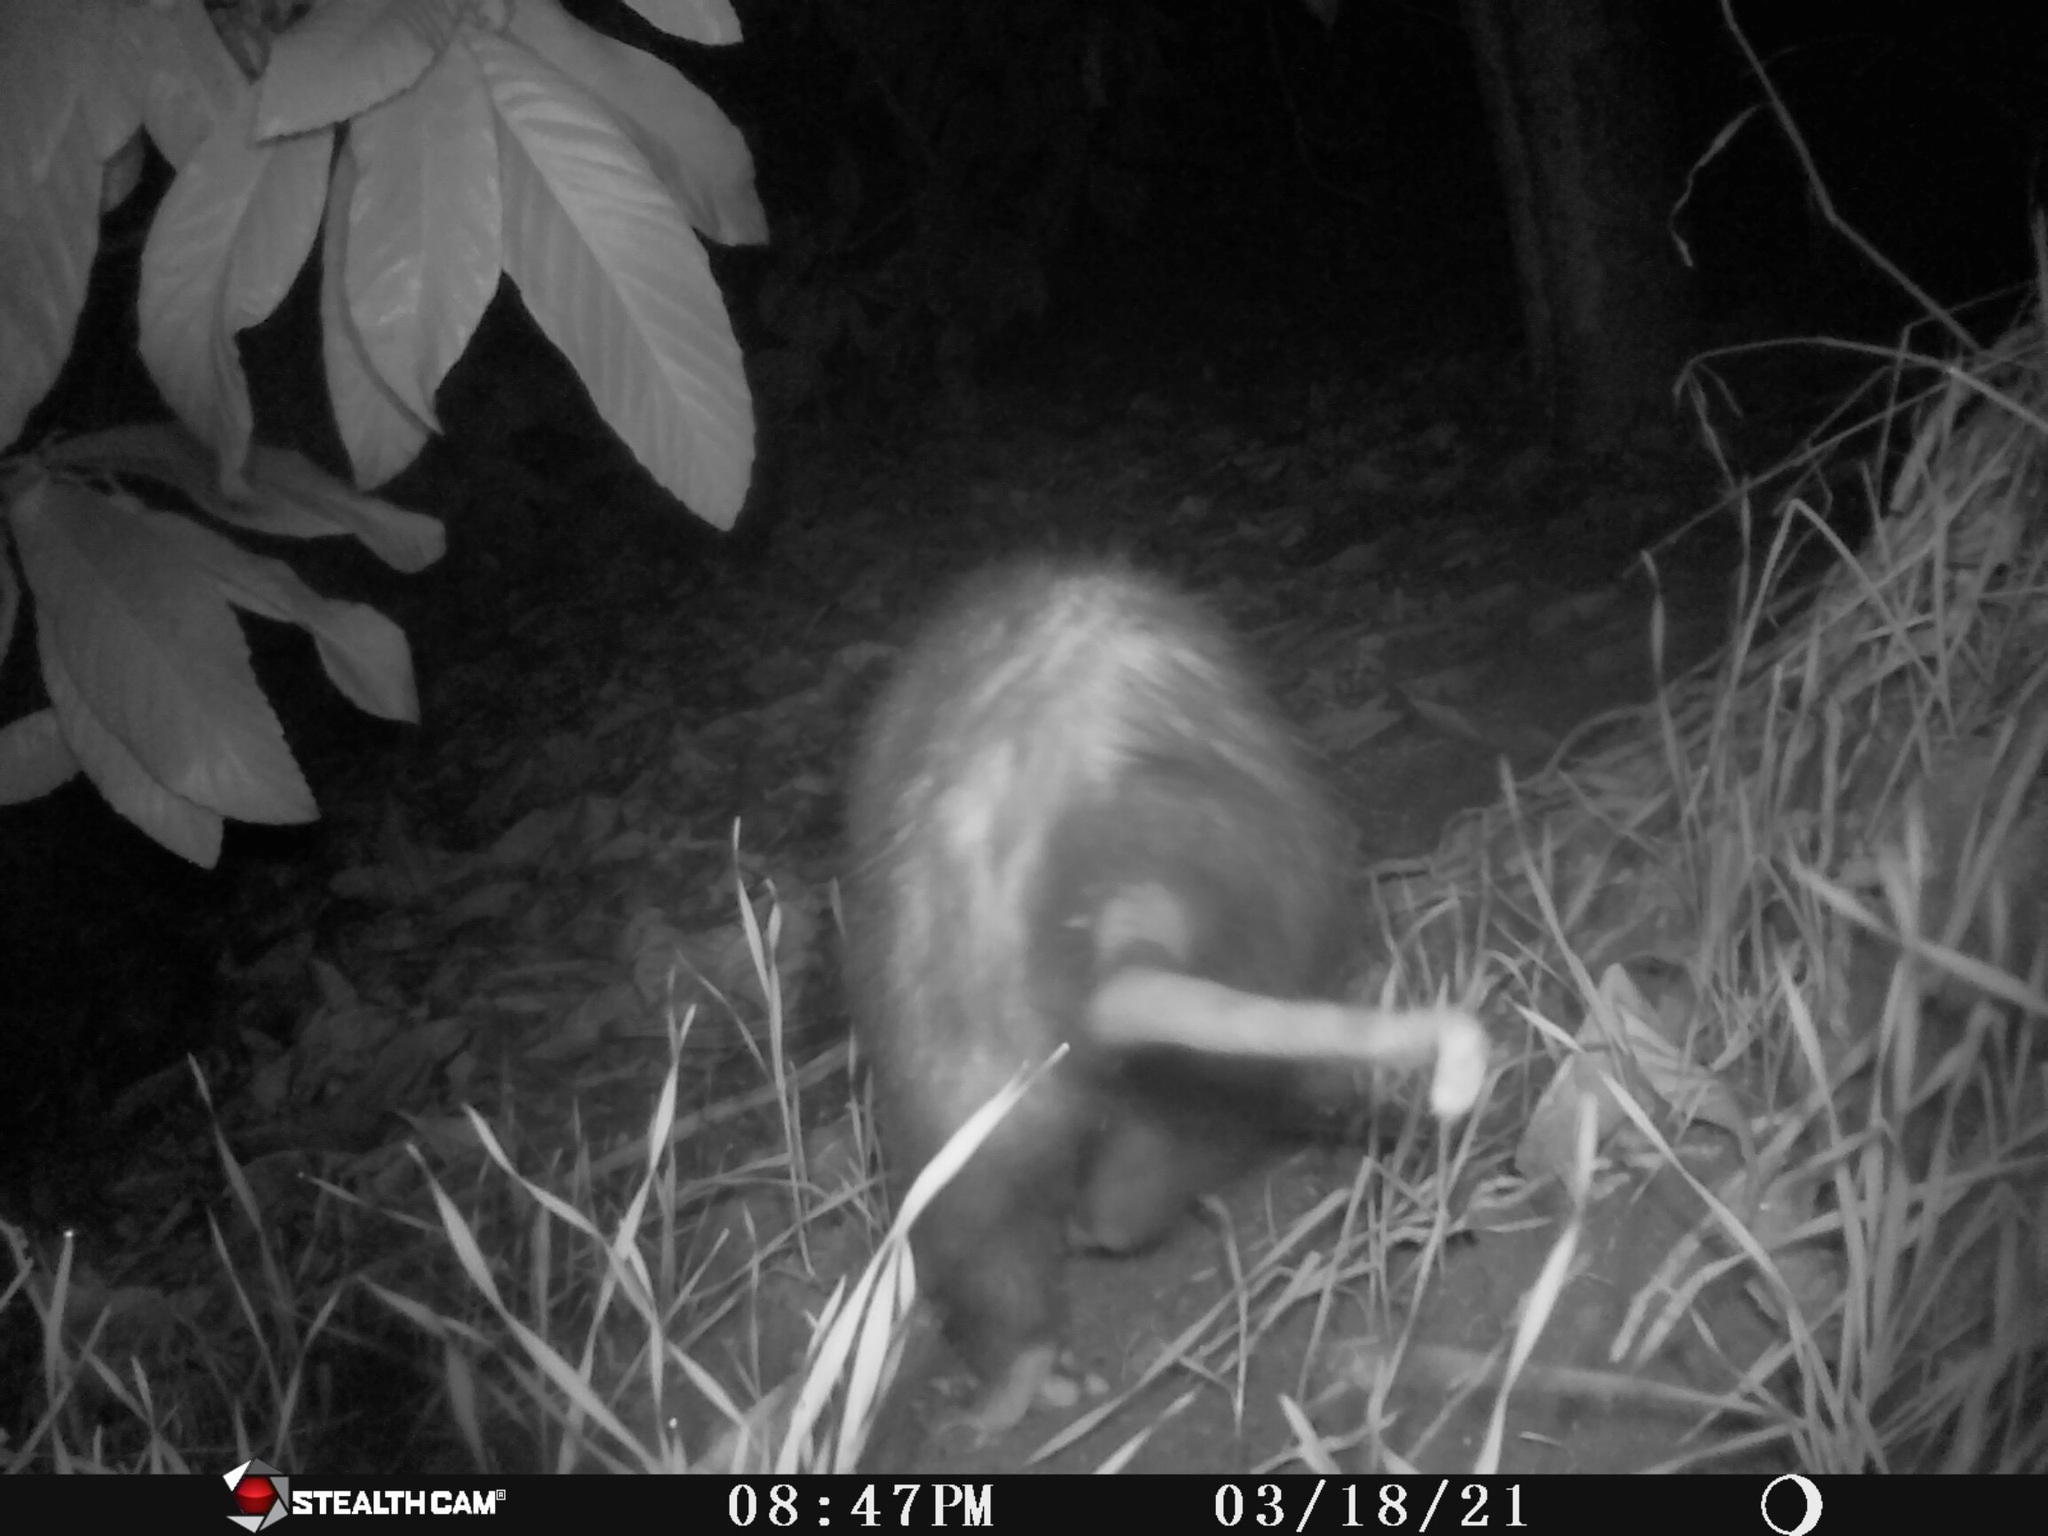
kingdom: Animalia
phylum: Chordata
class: Mammalia
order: Didelphimorphia
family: Didelphidae
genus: Didelphis
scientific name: Didelphis virginiana
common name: Virginia opossum
